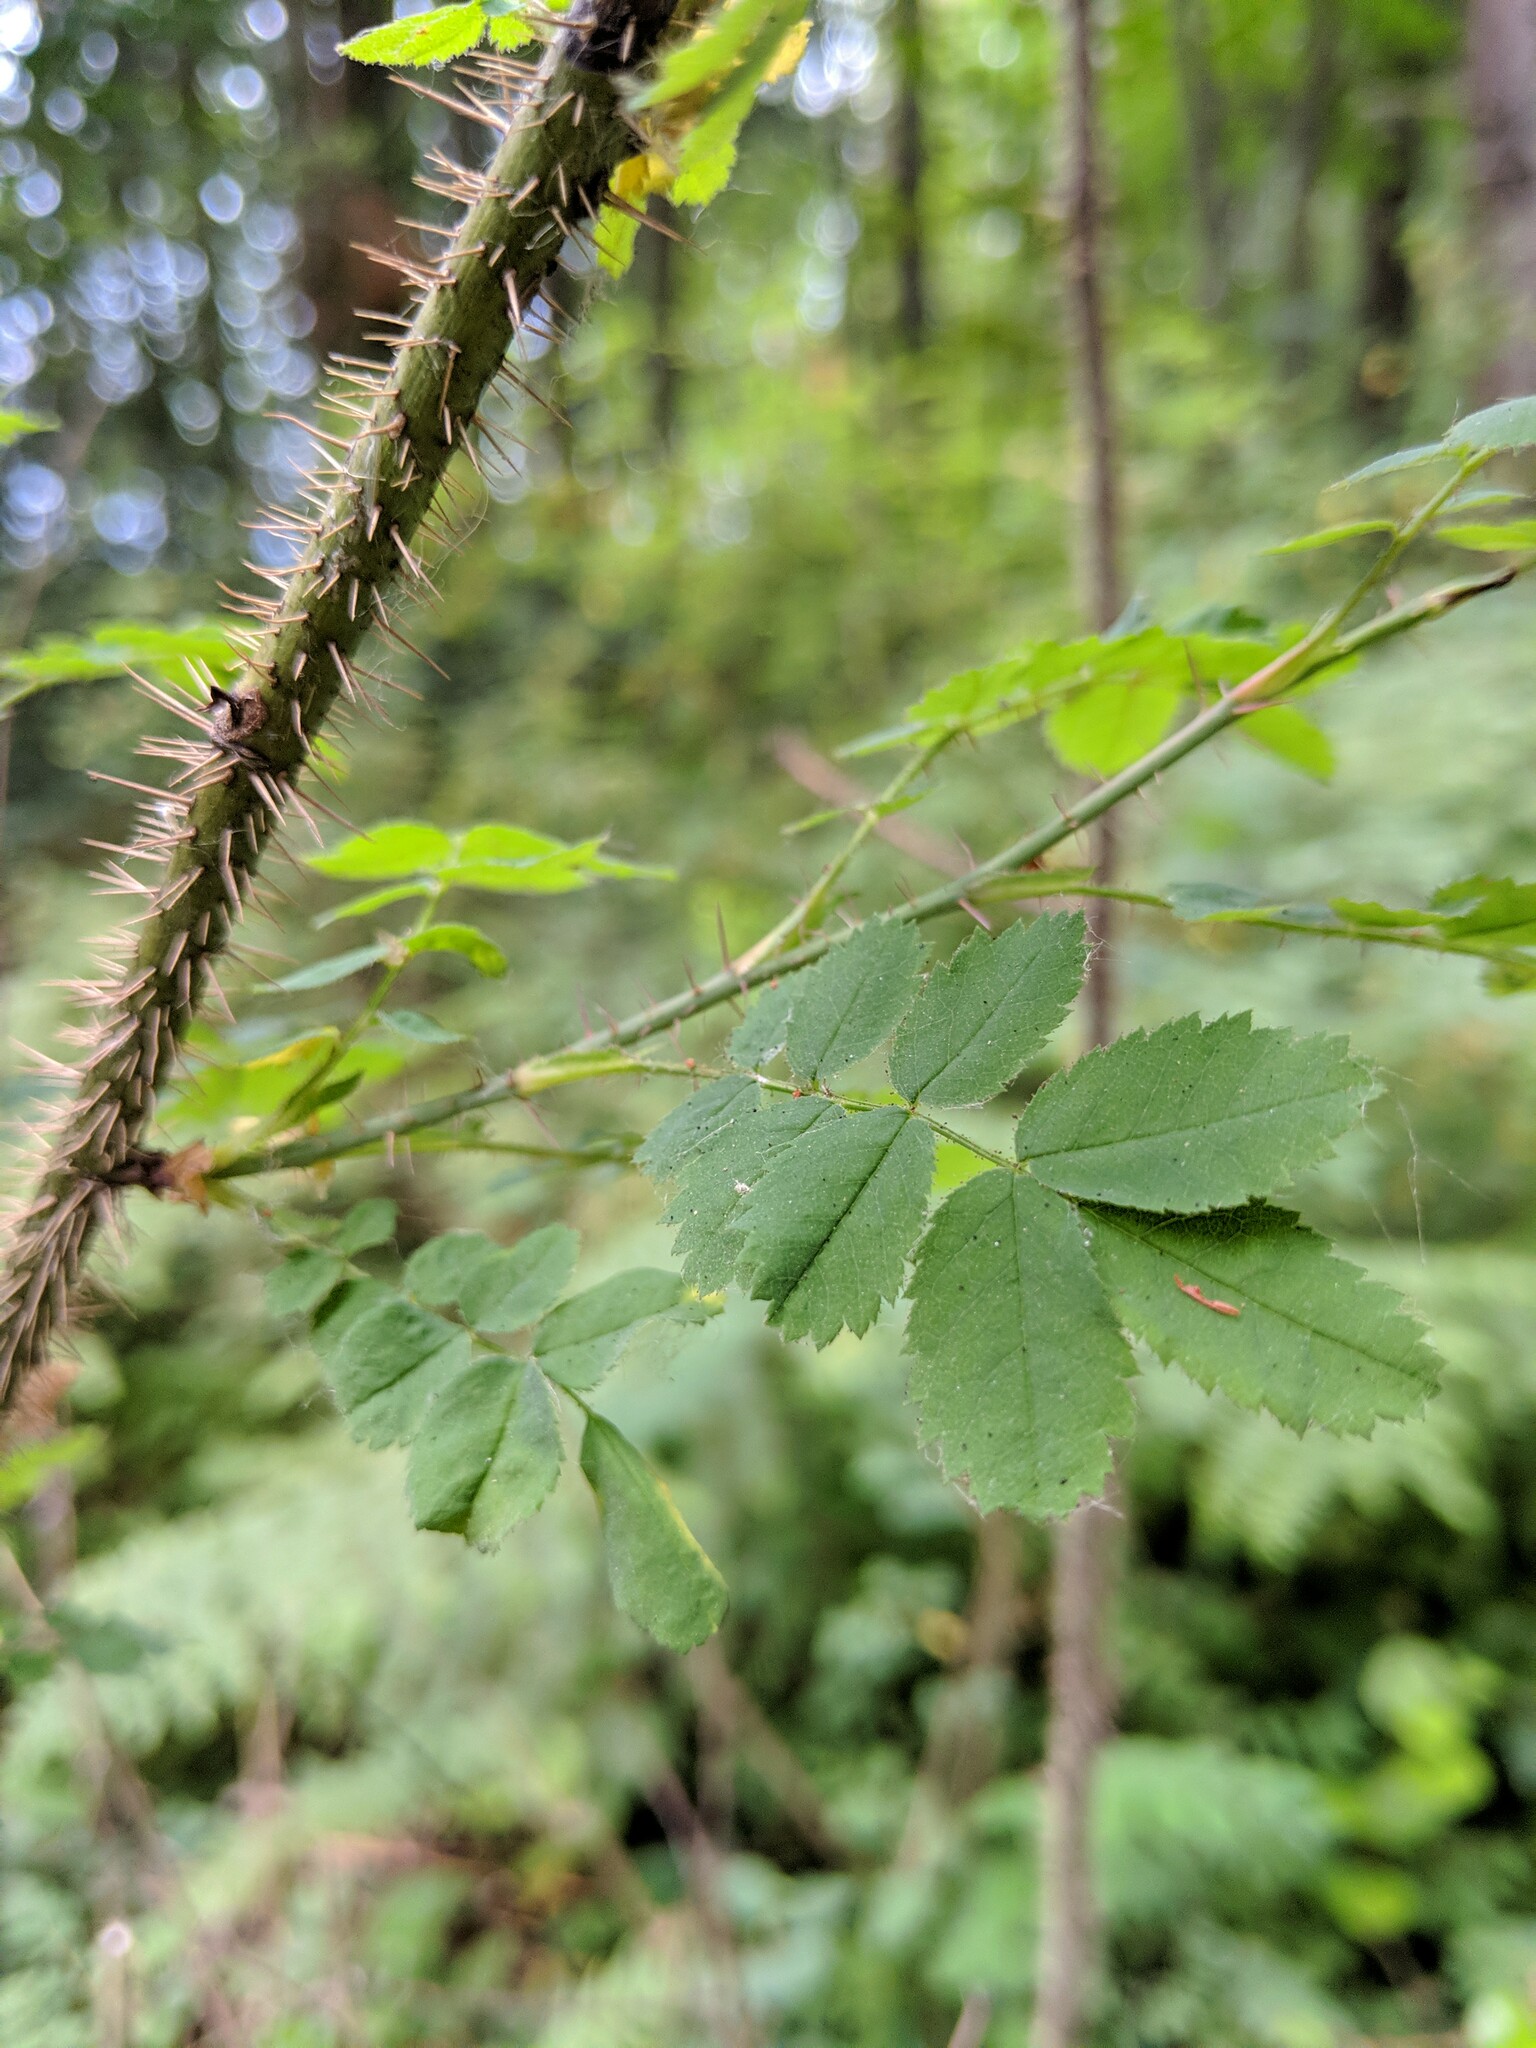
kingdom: Plantae
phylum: Tracheophyta
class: Magnoliopsida
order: Rosales
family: Rosaceae
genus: Rosa
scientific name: Rosa gymnocarpa
